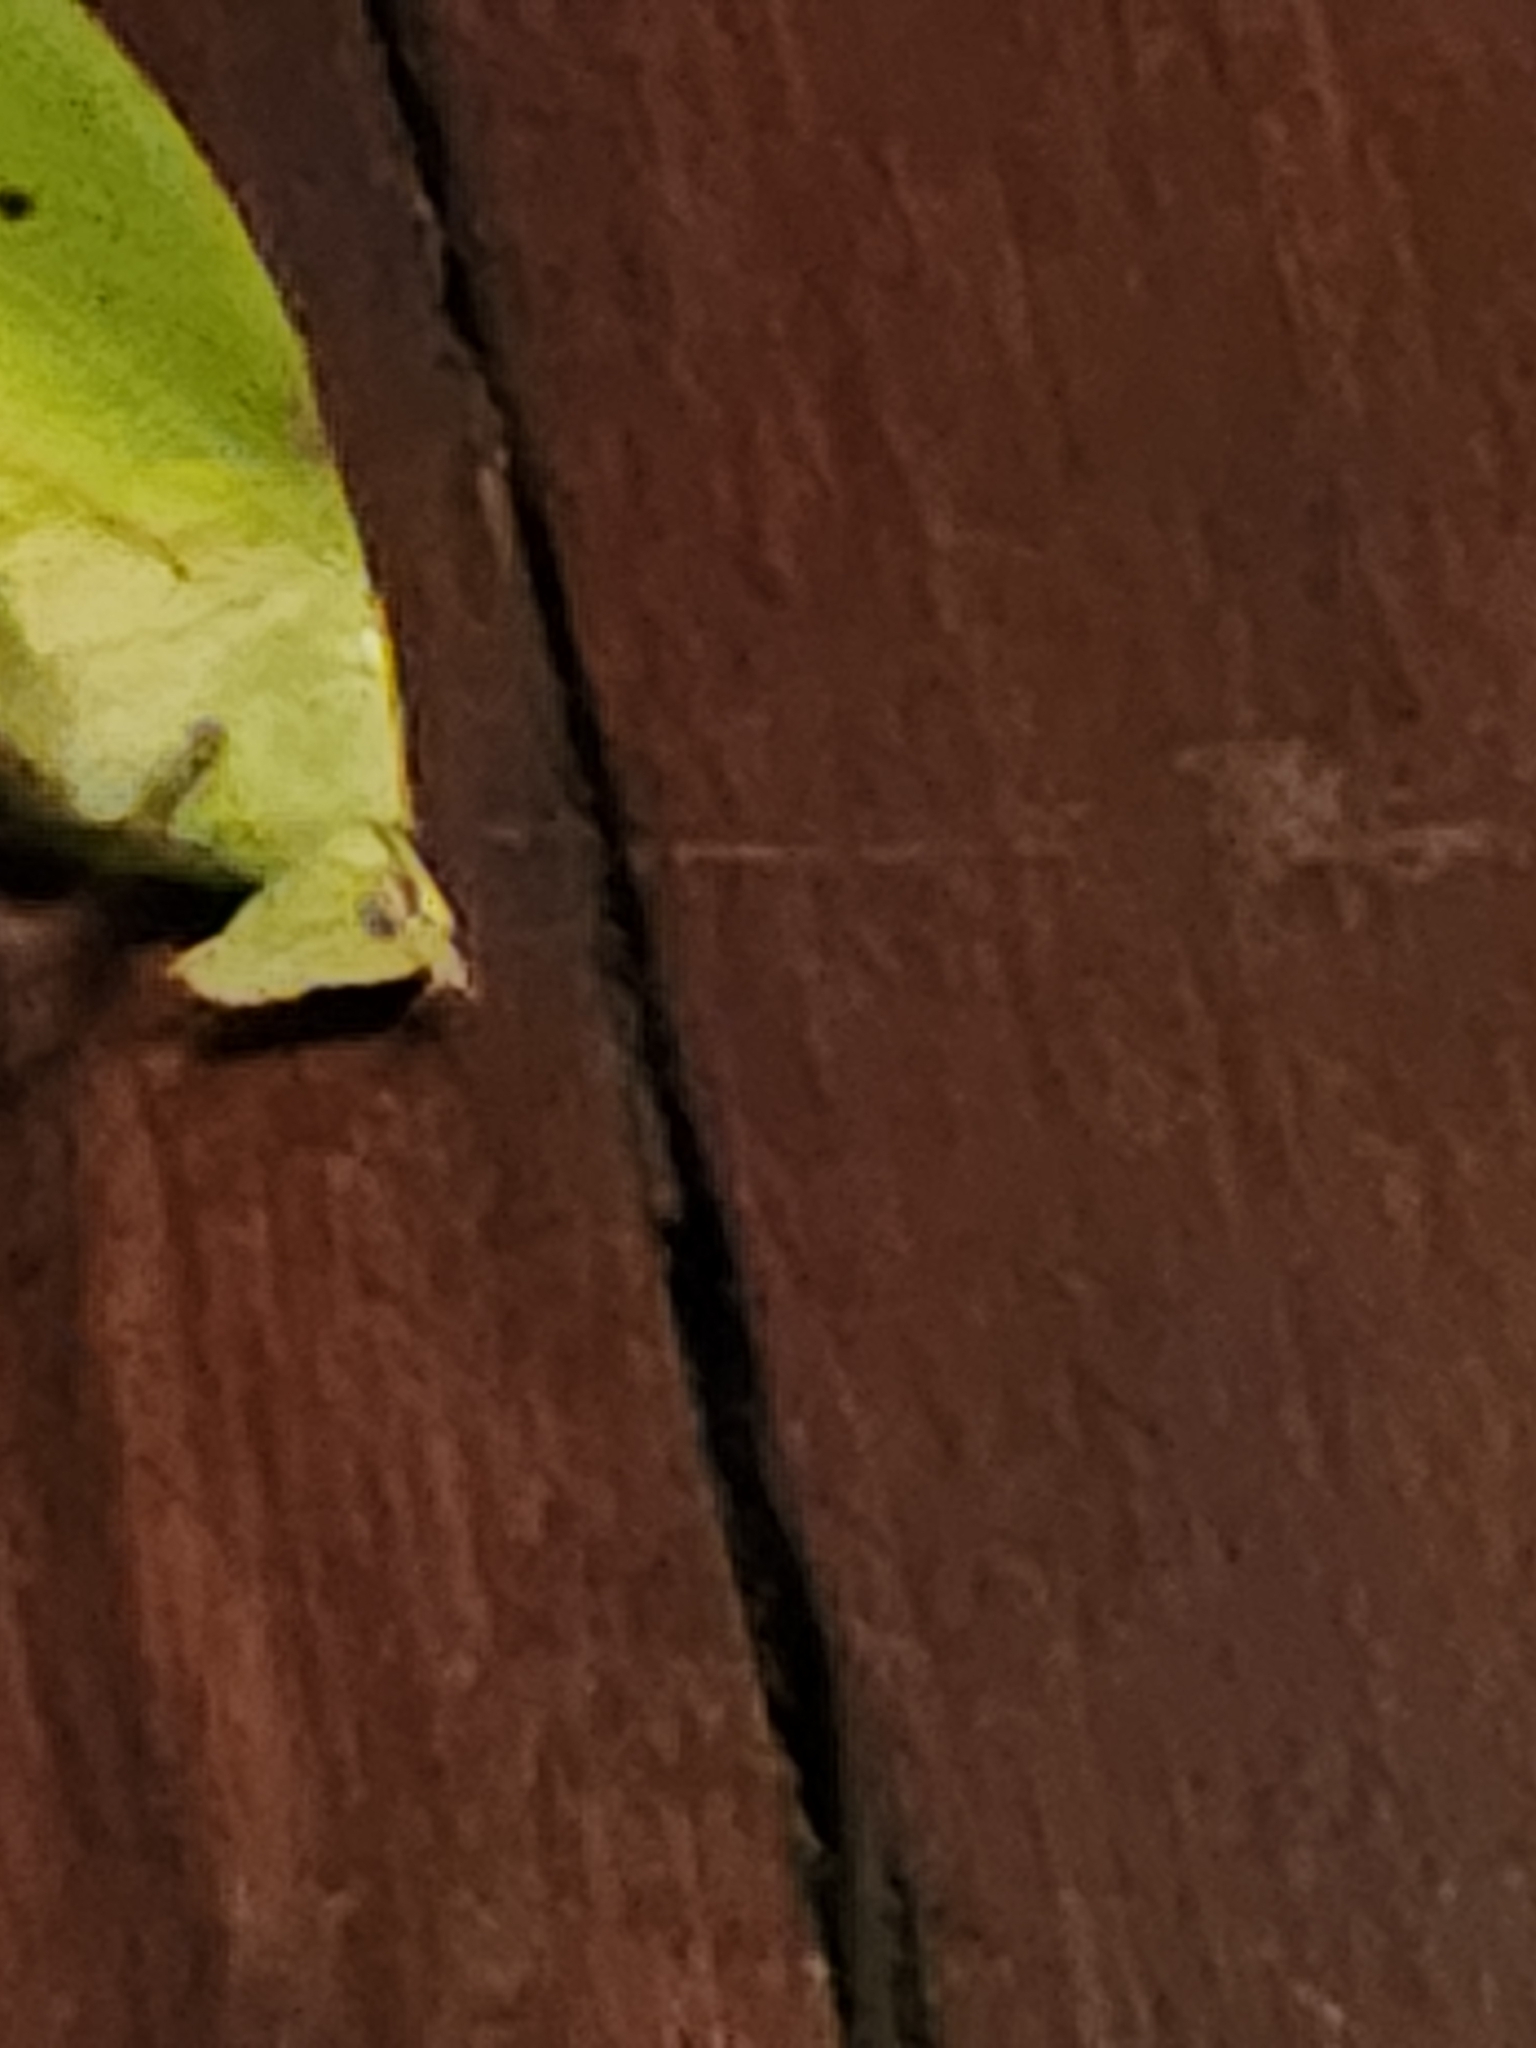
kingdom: Animalia
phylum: Arthropoda
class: Insecta
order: Orthoptera
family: Tettigoniidae
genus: Arota
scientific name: Arota panamae
